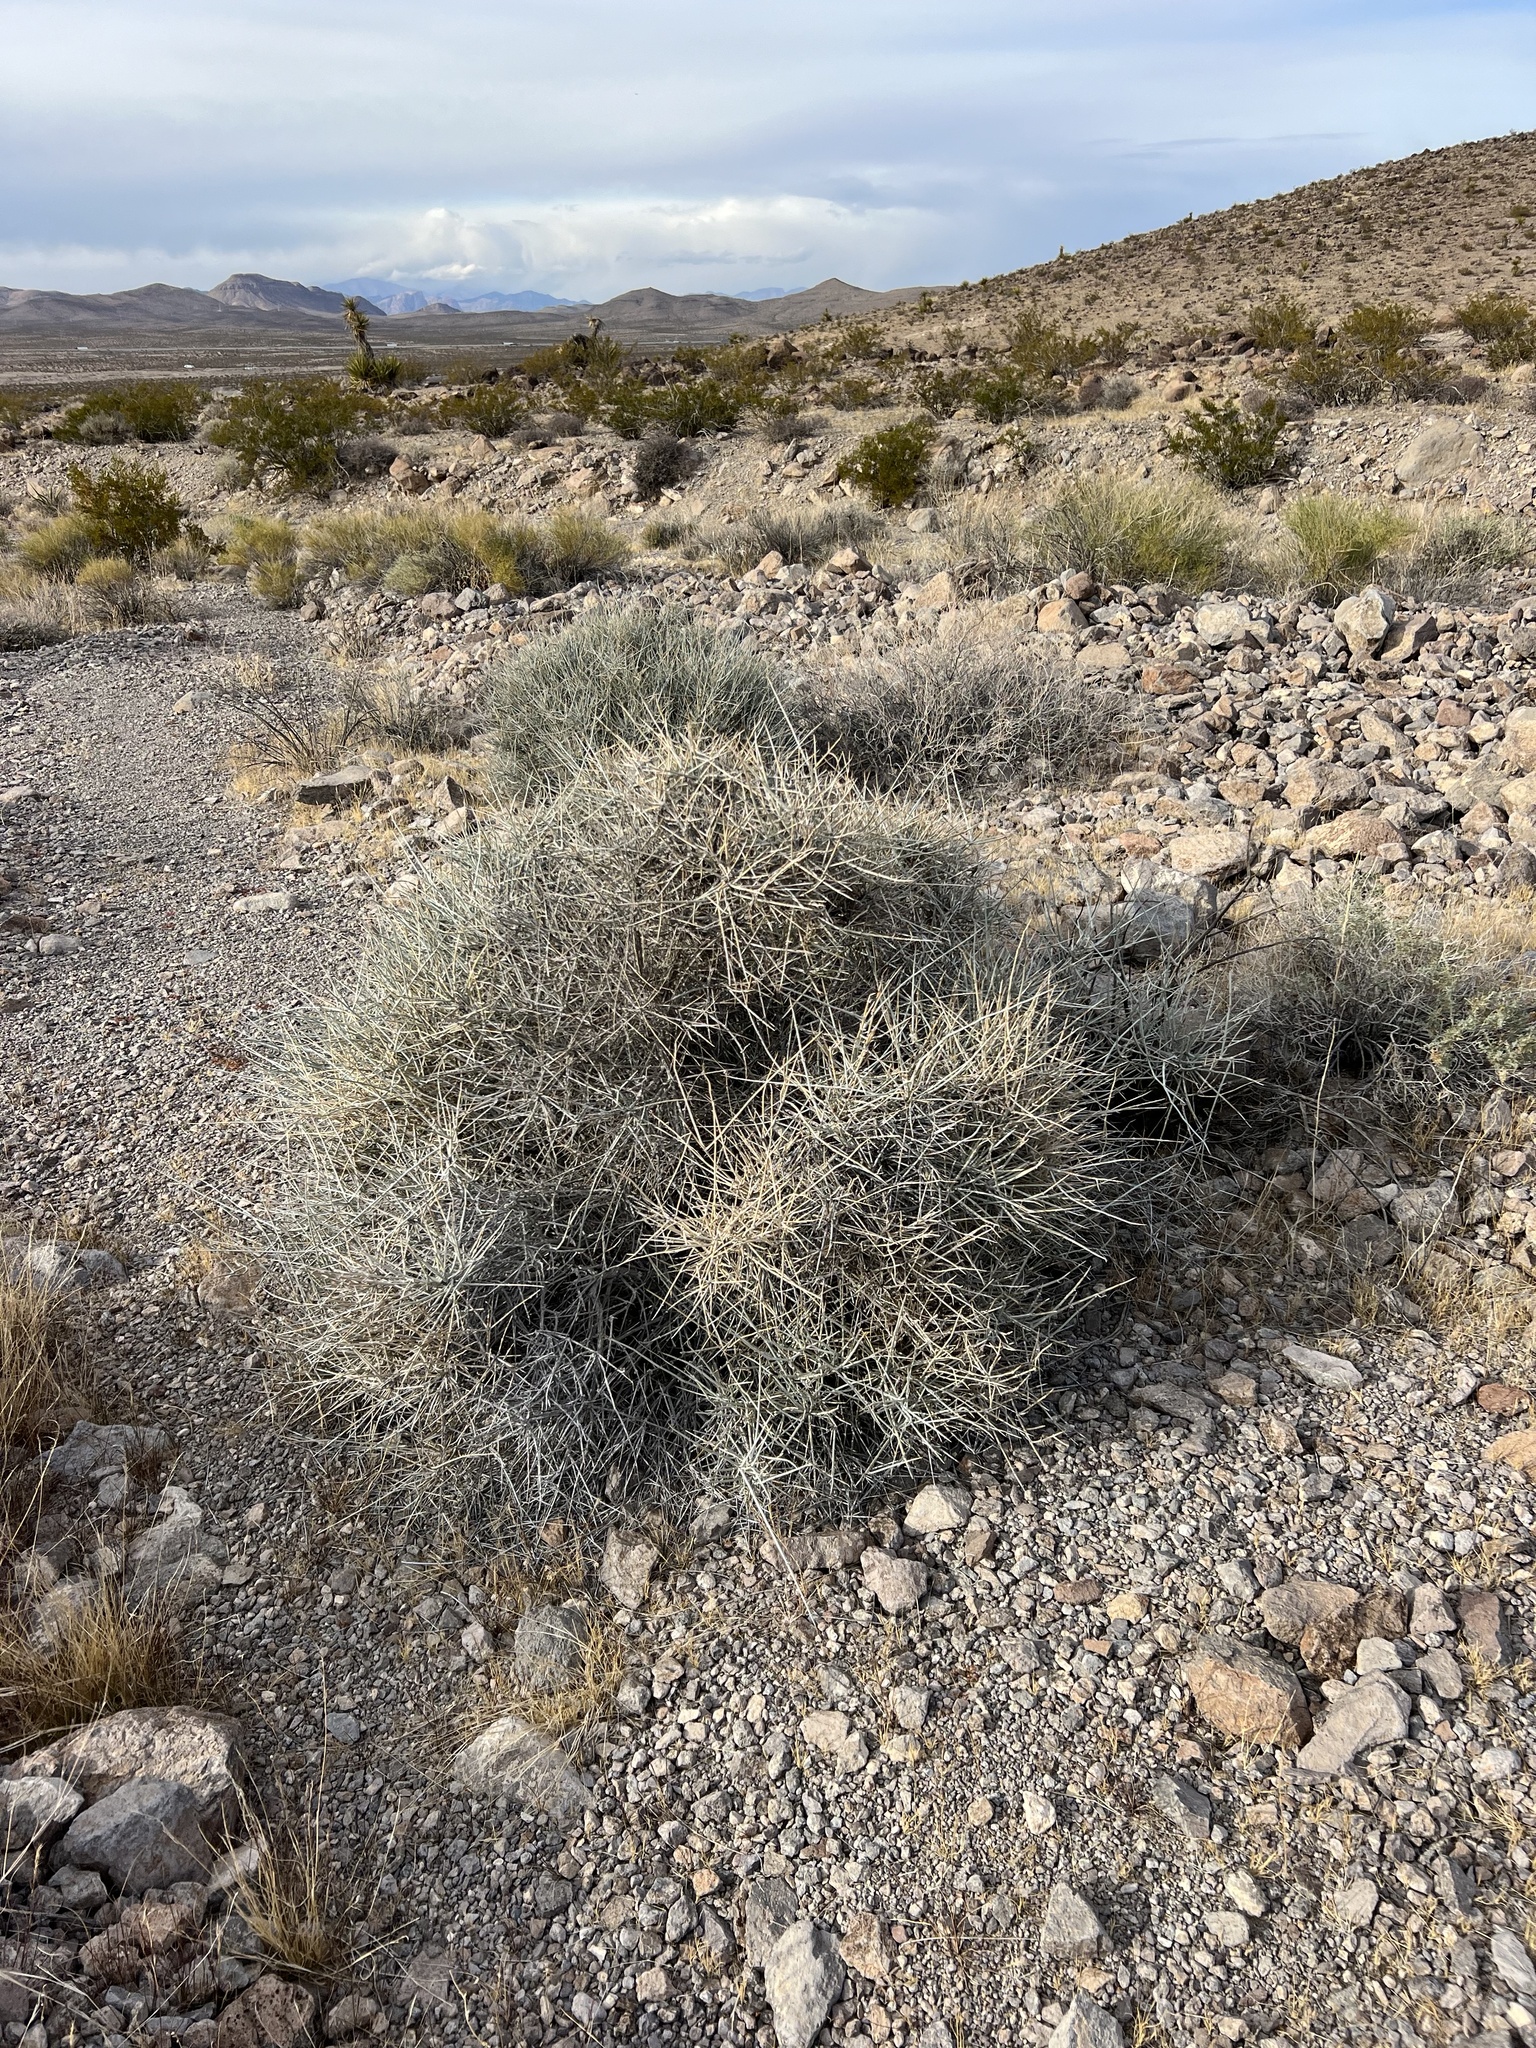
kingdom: Plantae
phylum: Tracheophyta
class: Gnetopsida
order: Ephedrales
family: Ephedraceae
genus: Ephedra
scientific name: Ephedra nevadensis
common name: Gray ephedra
